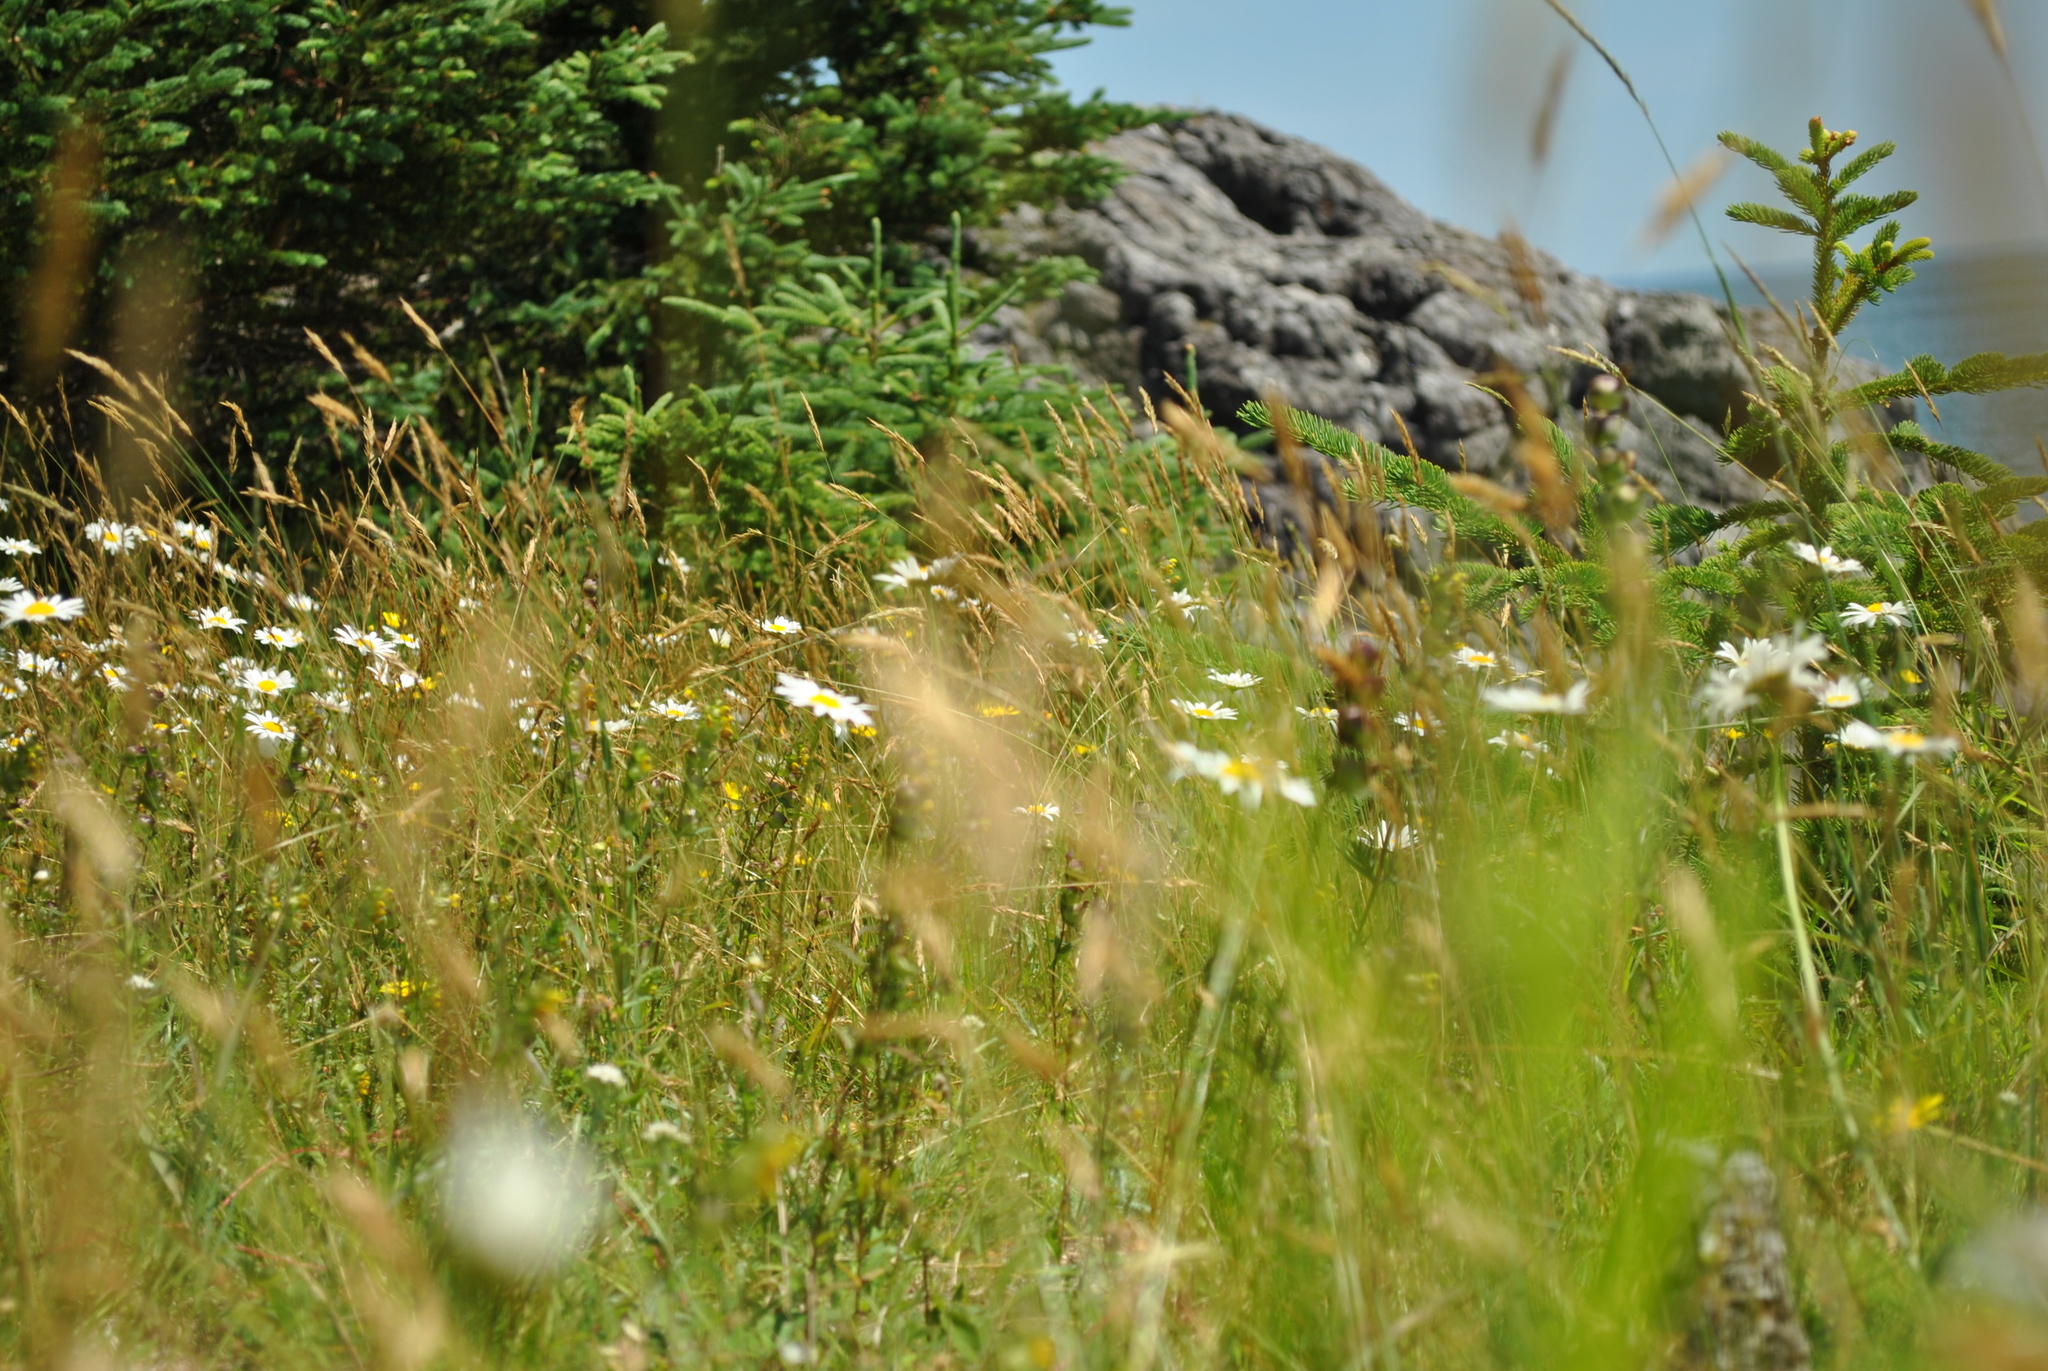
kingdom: Plantae
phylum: Tracheophyta
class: Magnoliopsida
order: Asterales
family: Asteraceae
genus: Leucanthemum
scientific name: Leucanthemum vulgare
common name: Oxeye daisy
